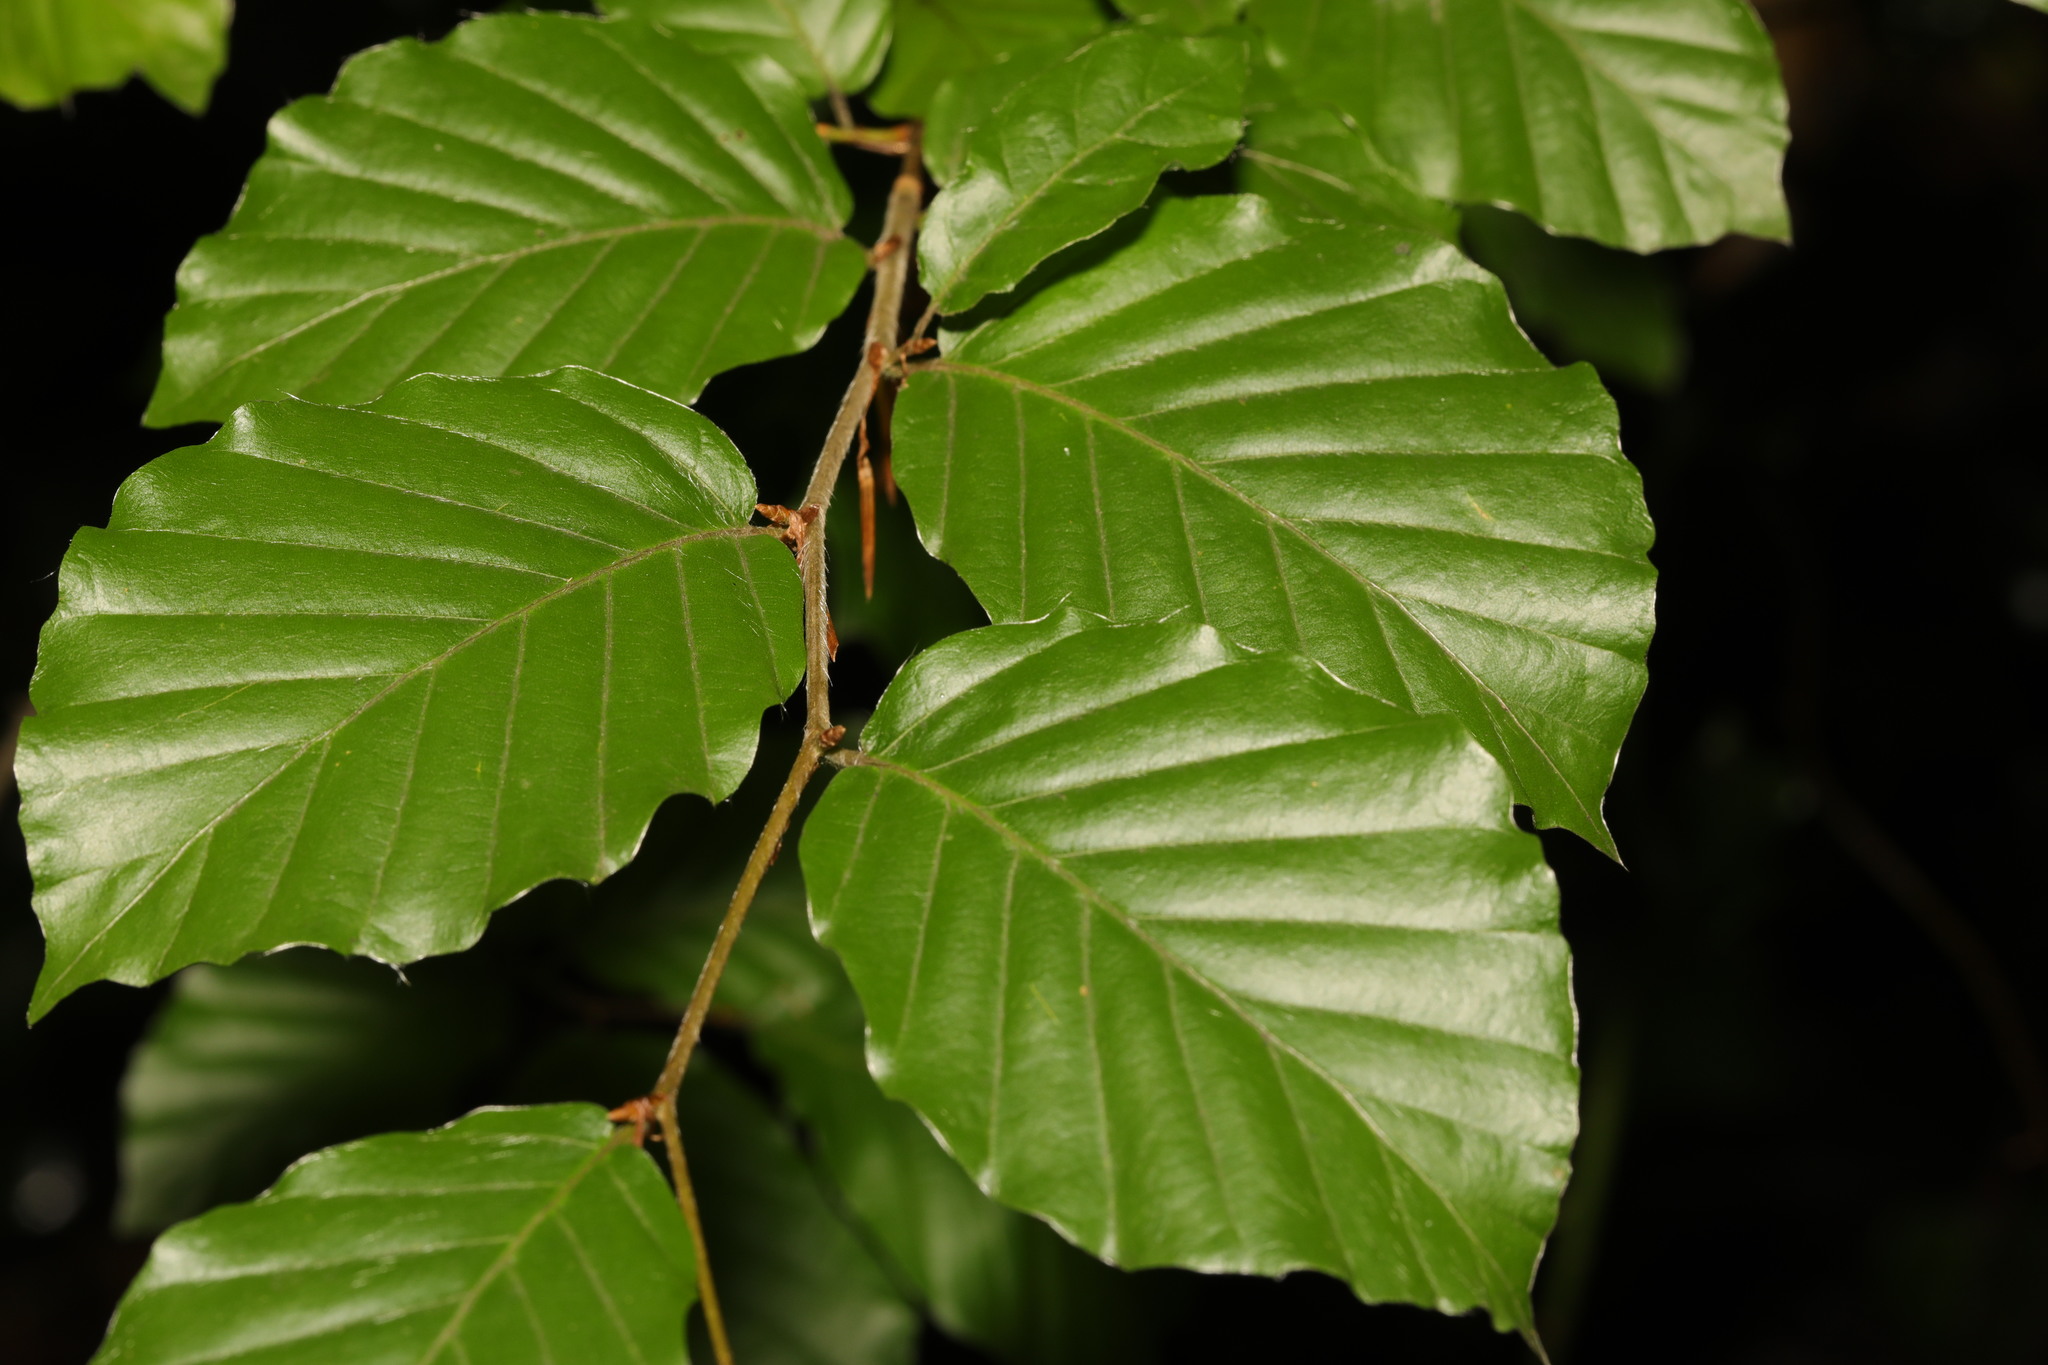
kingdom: Plantae
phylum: Tracheophyta
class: Magnoliopsida
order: Fagales
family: Fagaceae
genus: Fagus
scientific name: Fagus sylvatica
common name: Beech
